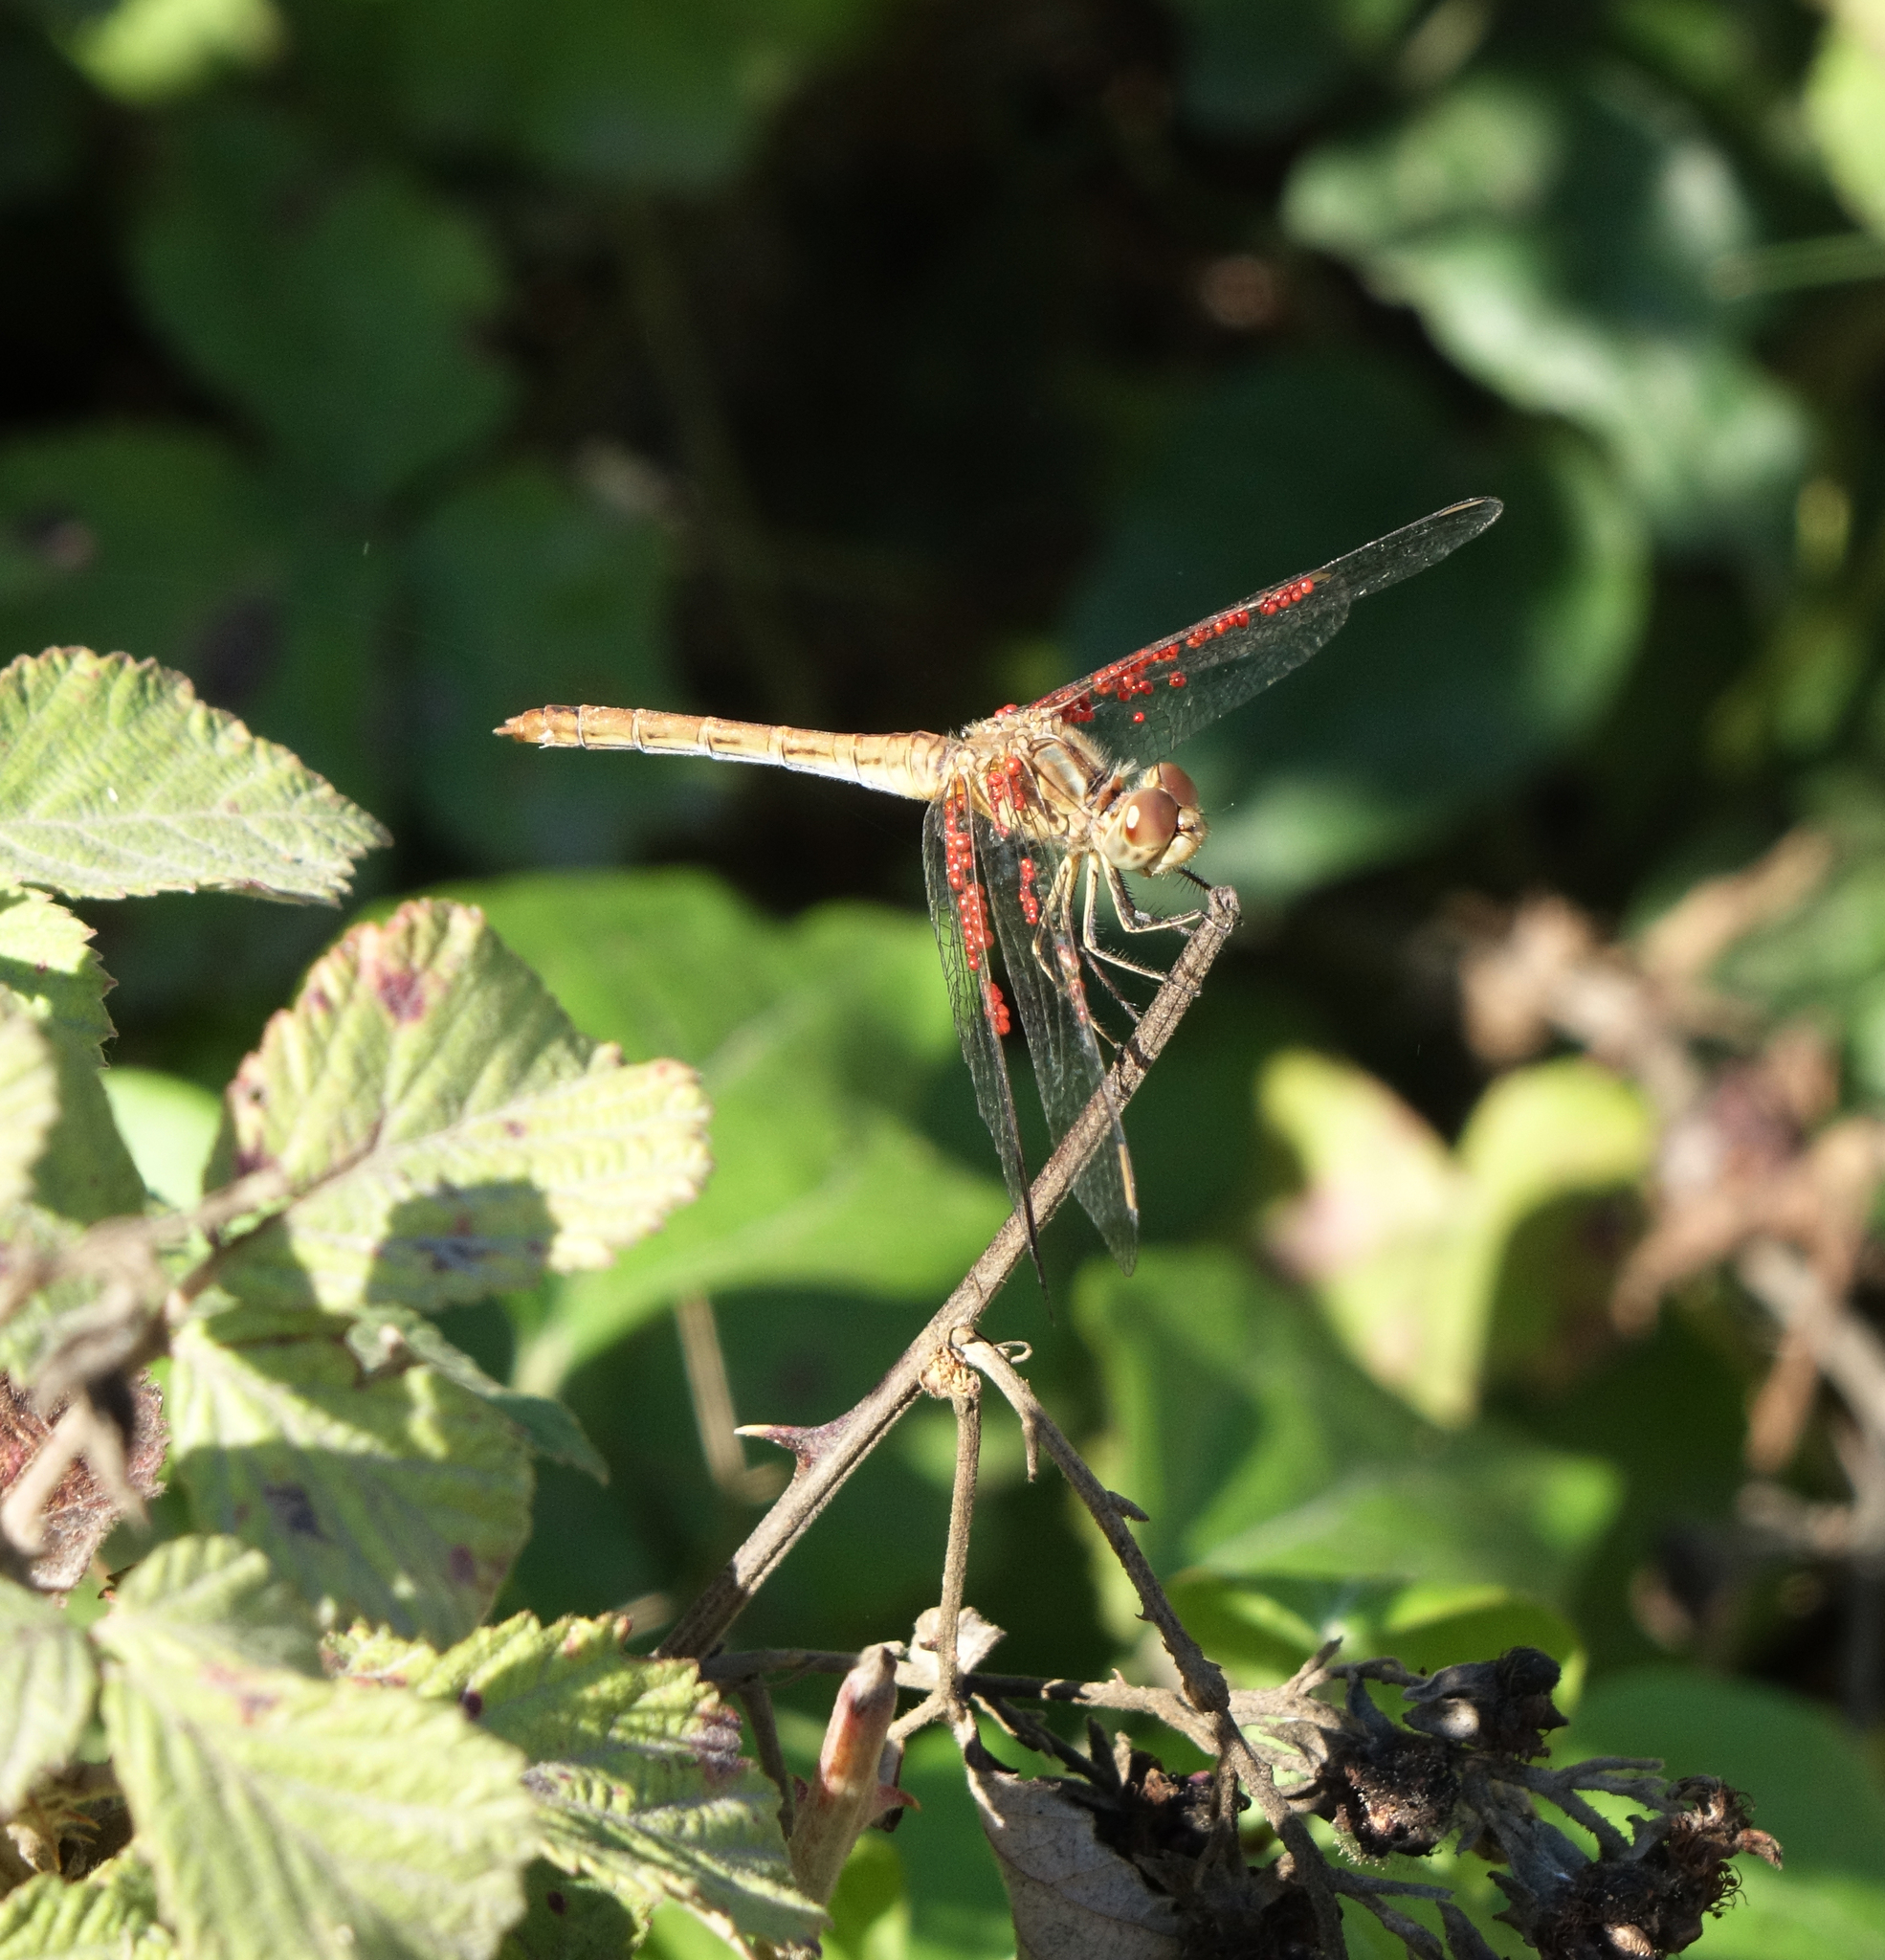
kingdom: Animalia
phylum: Arthropoda
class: Insecta
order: Odonata
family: Libellulidae
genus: Sympetrum
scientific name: Sympetrum meridionale
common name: Southern darter
